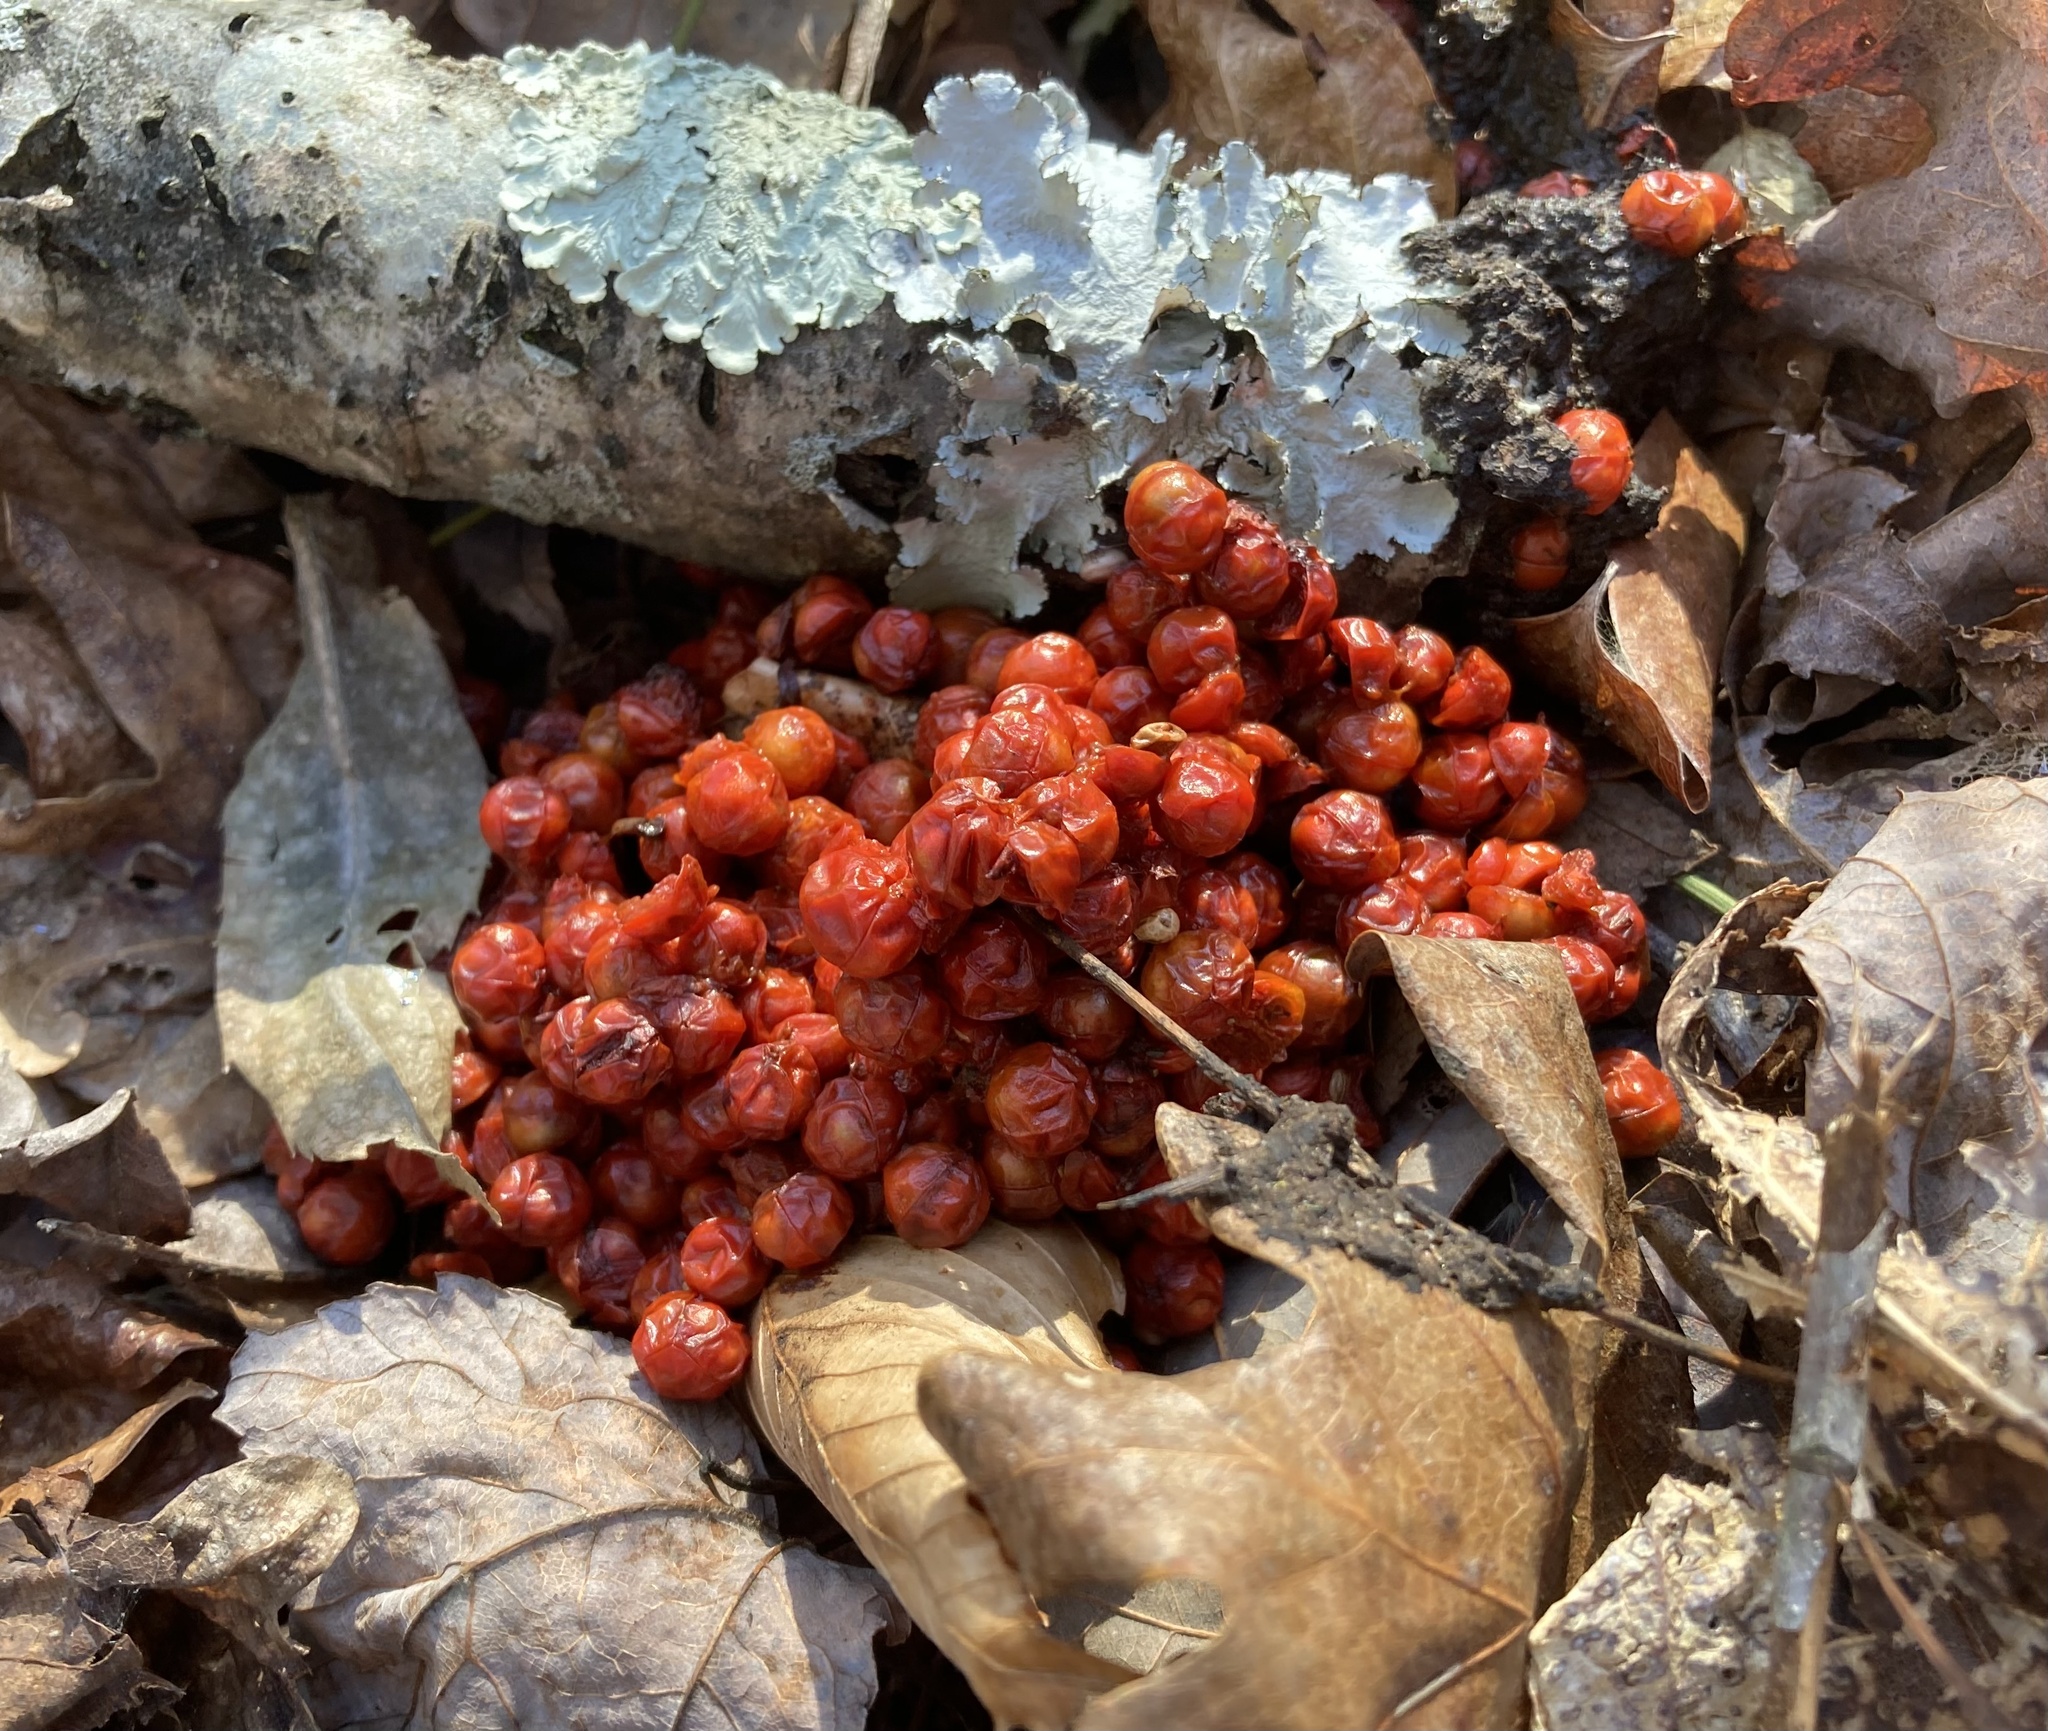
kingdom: Plantae
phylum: Tracheophyta
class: Magnoliopsida
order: Celastrales
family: Celastraceae
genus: Celastrus
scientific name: Celastrus orbiculatus
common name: Oriental bittersweet
